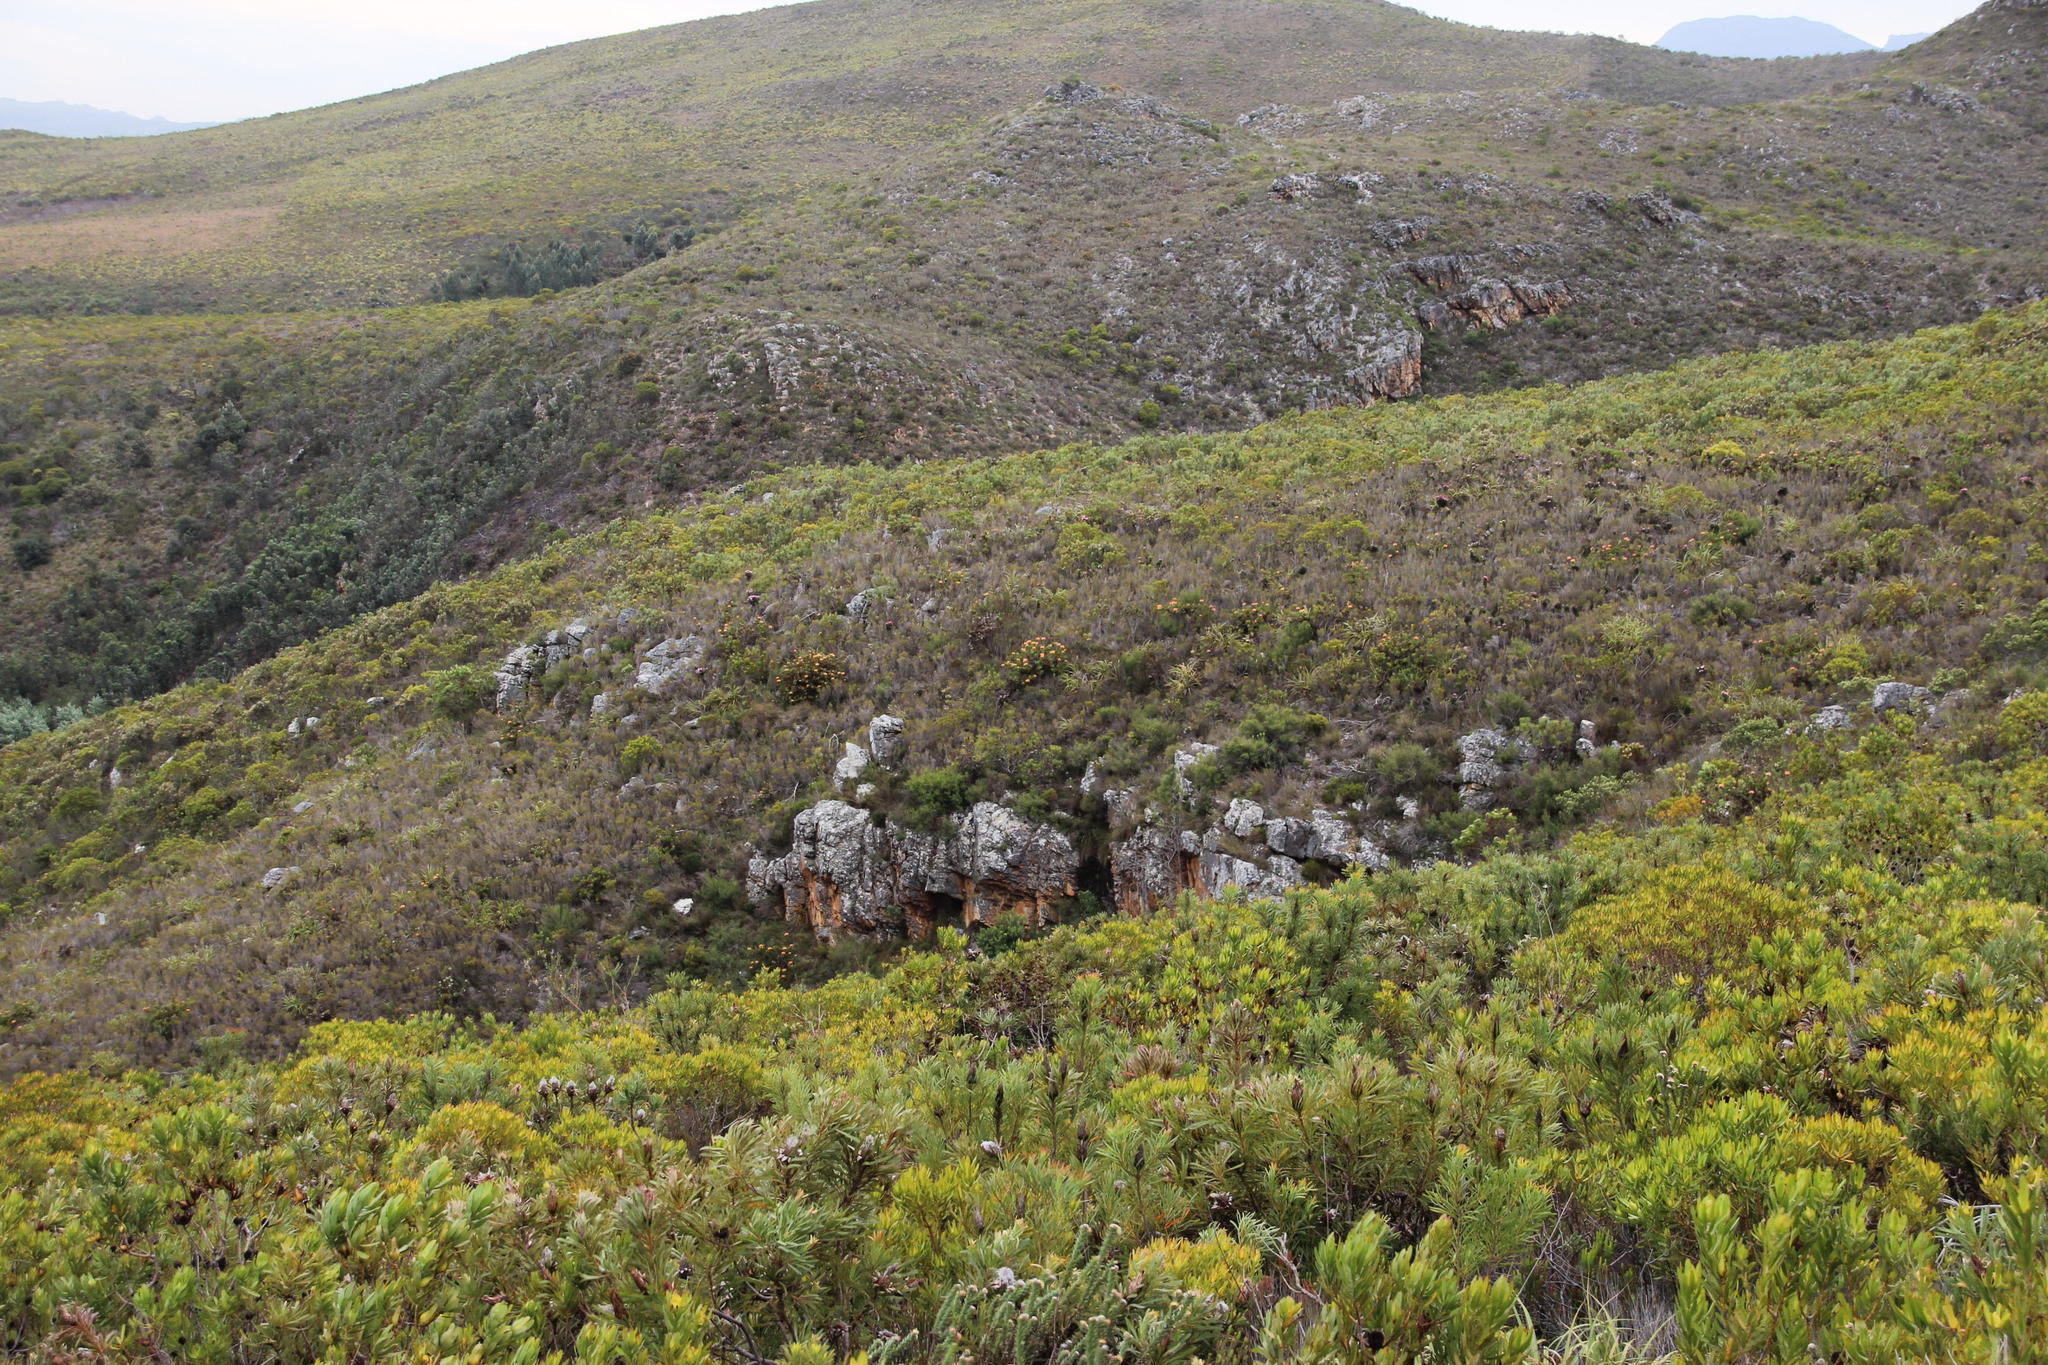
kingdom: Plantae
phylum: Tracheophyta
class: Magnoliopsida
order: Proteales
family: Proteaceae
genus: Leucospermum
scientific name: Leucospermum cordifolium
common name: Red pincushion-protea
